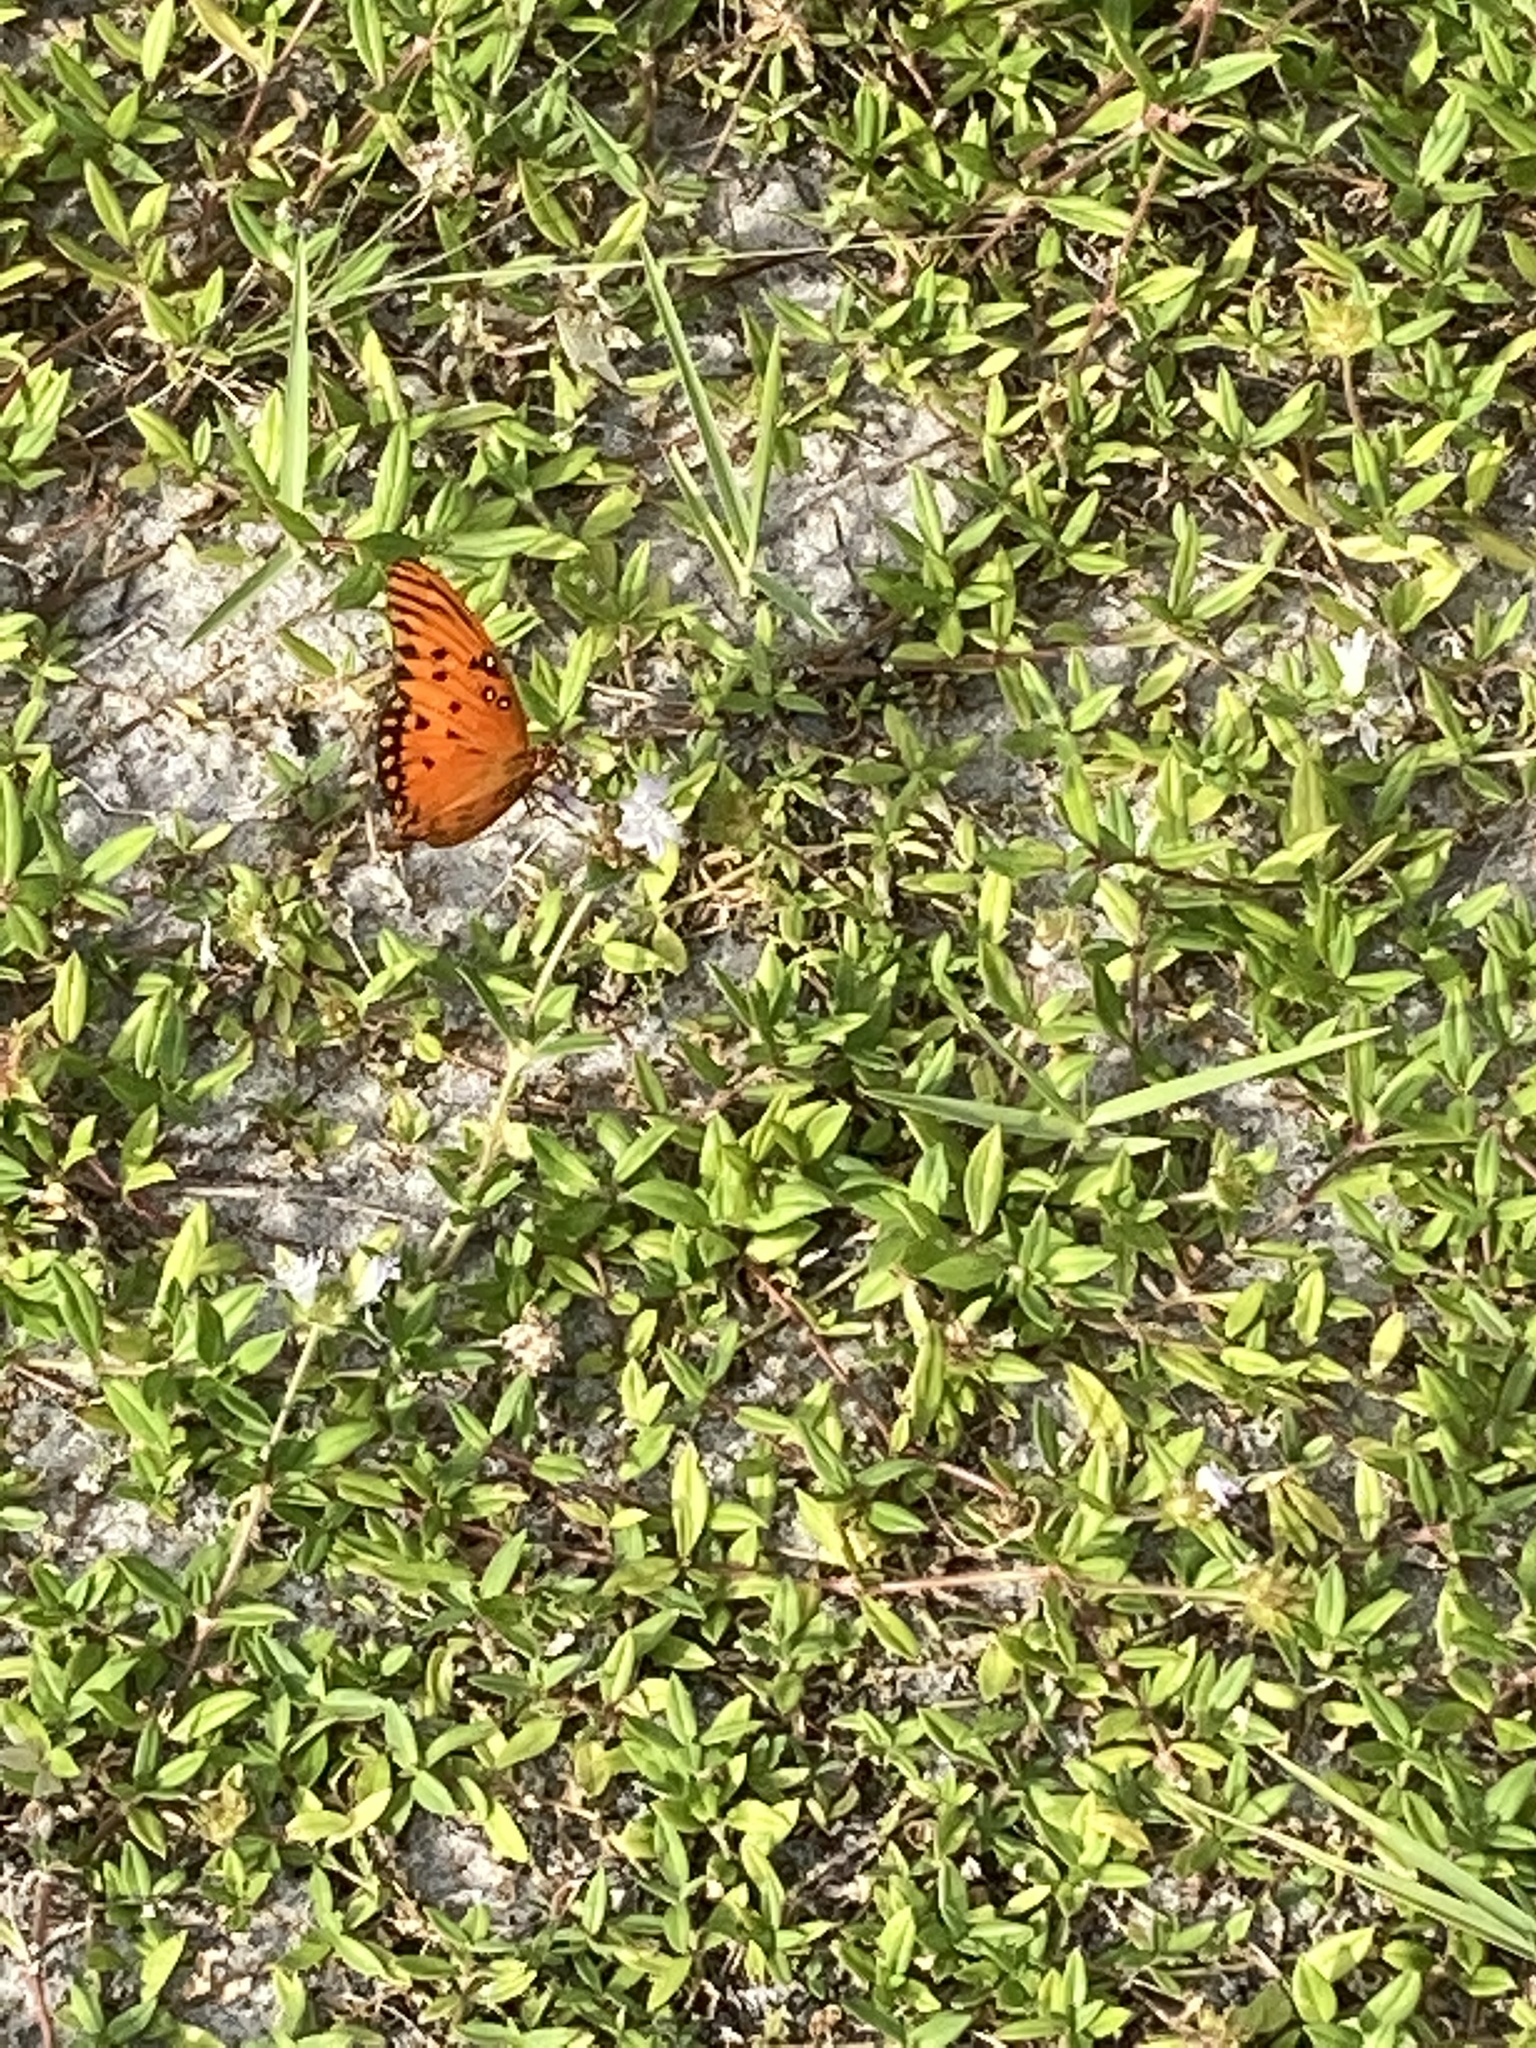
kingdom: Animalia
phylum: Arthropoda
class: Insecta
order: Lepidoptera
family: Nymphalidae
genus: Dione
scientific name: Dione vanillae
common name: Gulf fritillary
